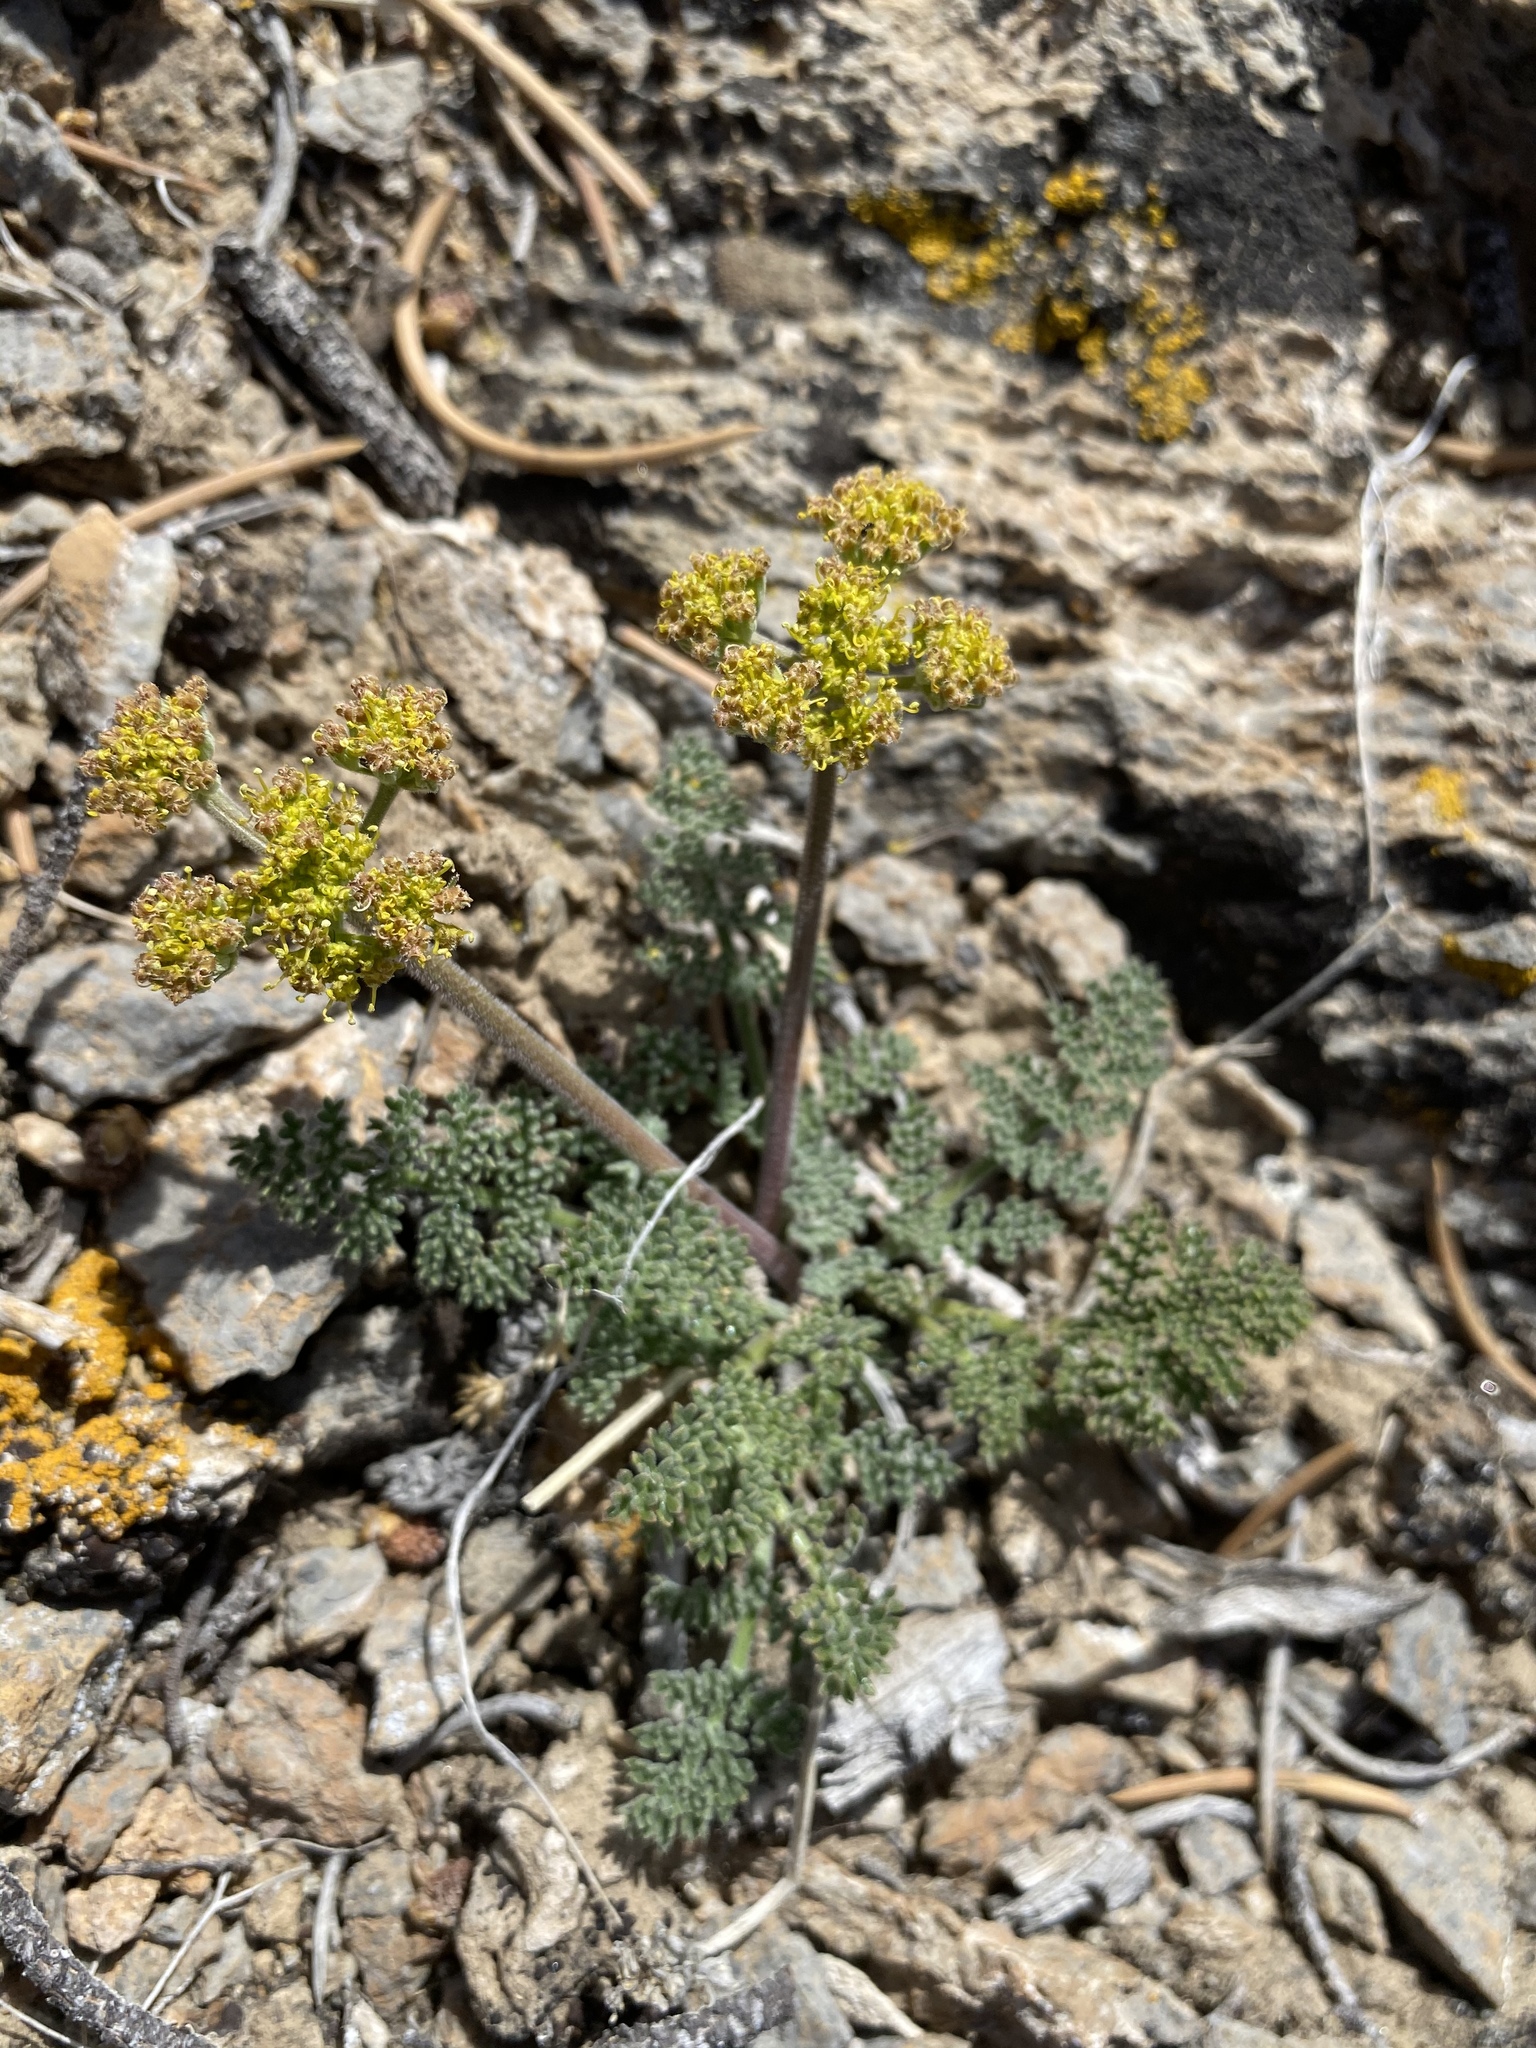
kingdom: Plantae
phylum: Tracheophyta
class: Magnoliopsida
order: Apiales
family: Apiaceae
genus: Lomatium
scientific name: Lomatium foeniculaceum
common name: Desert-parsley
